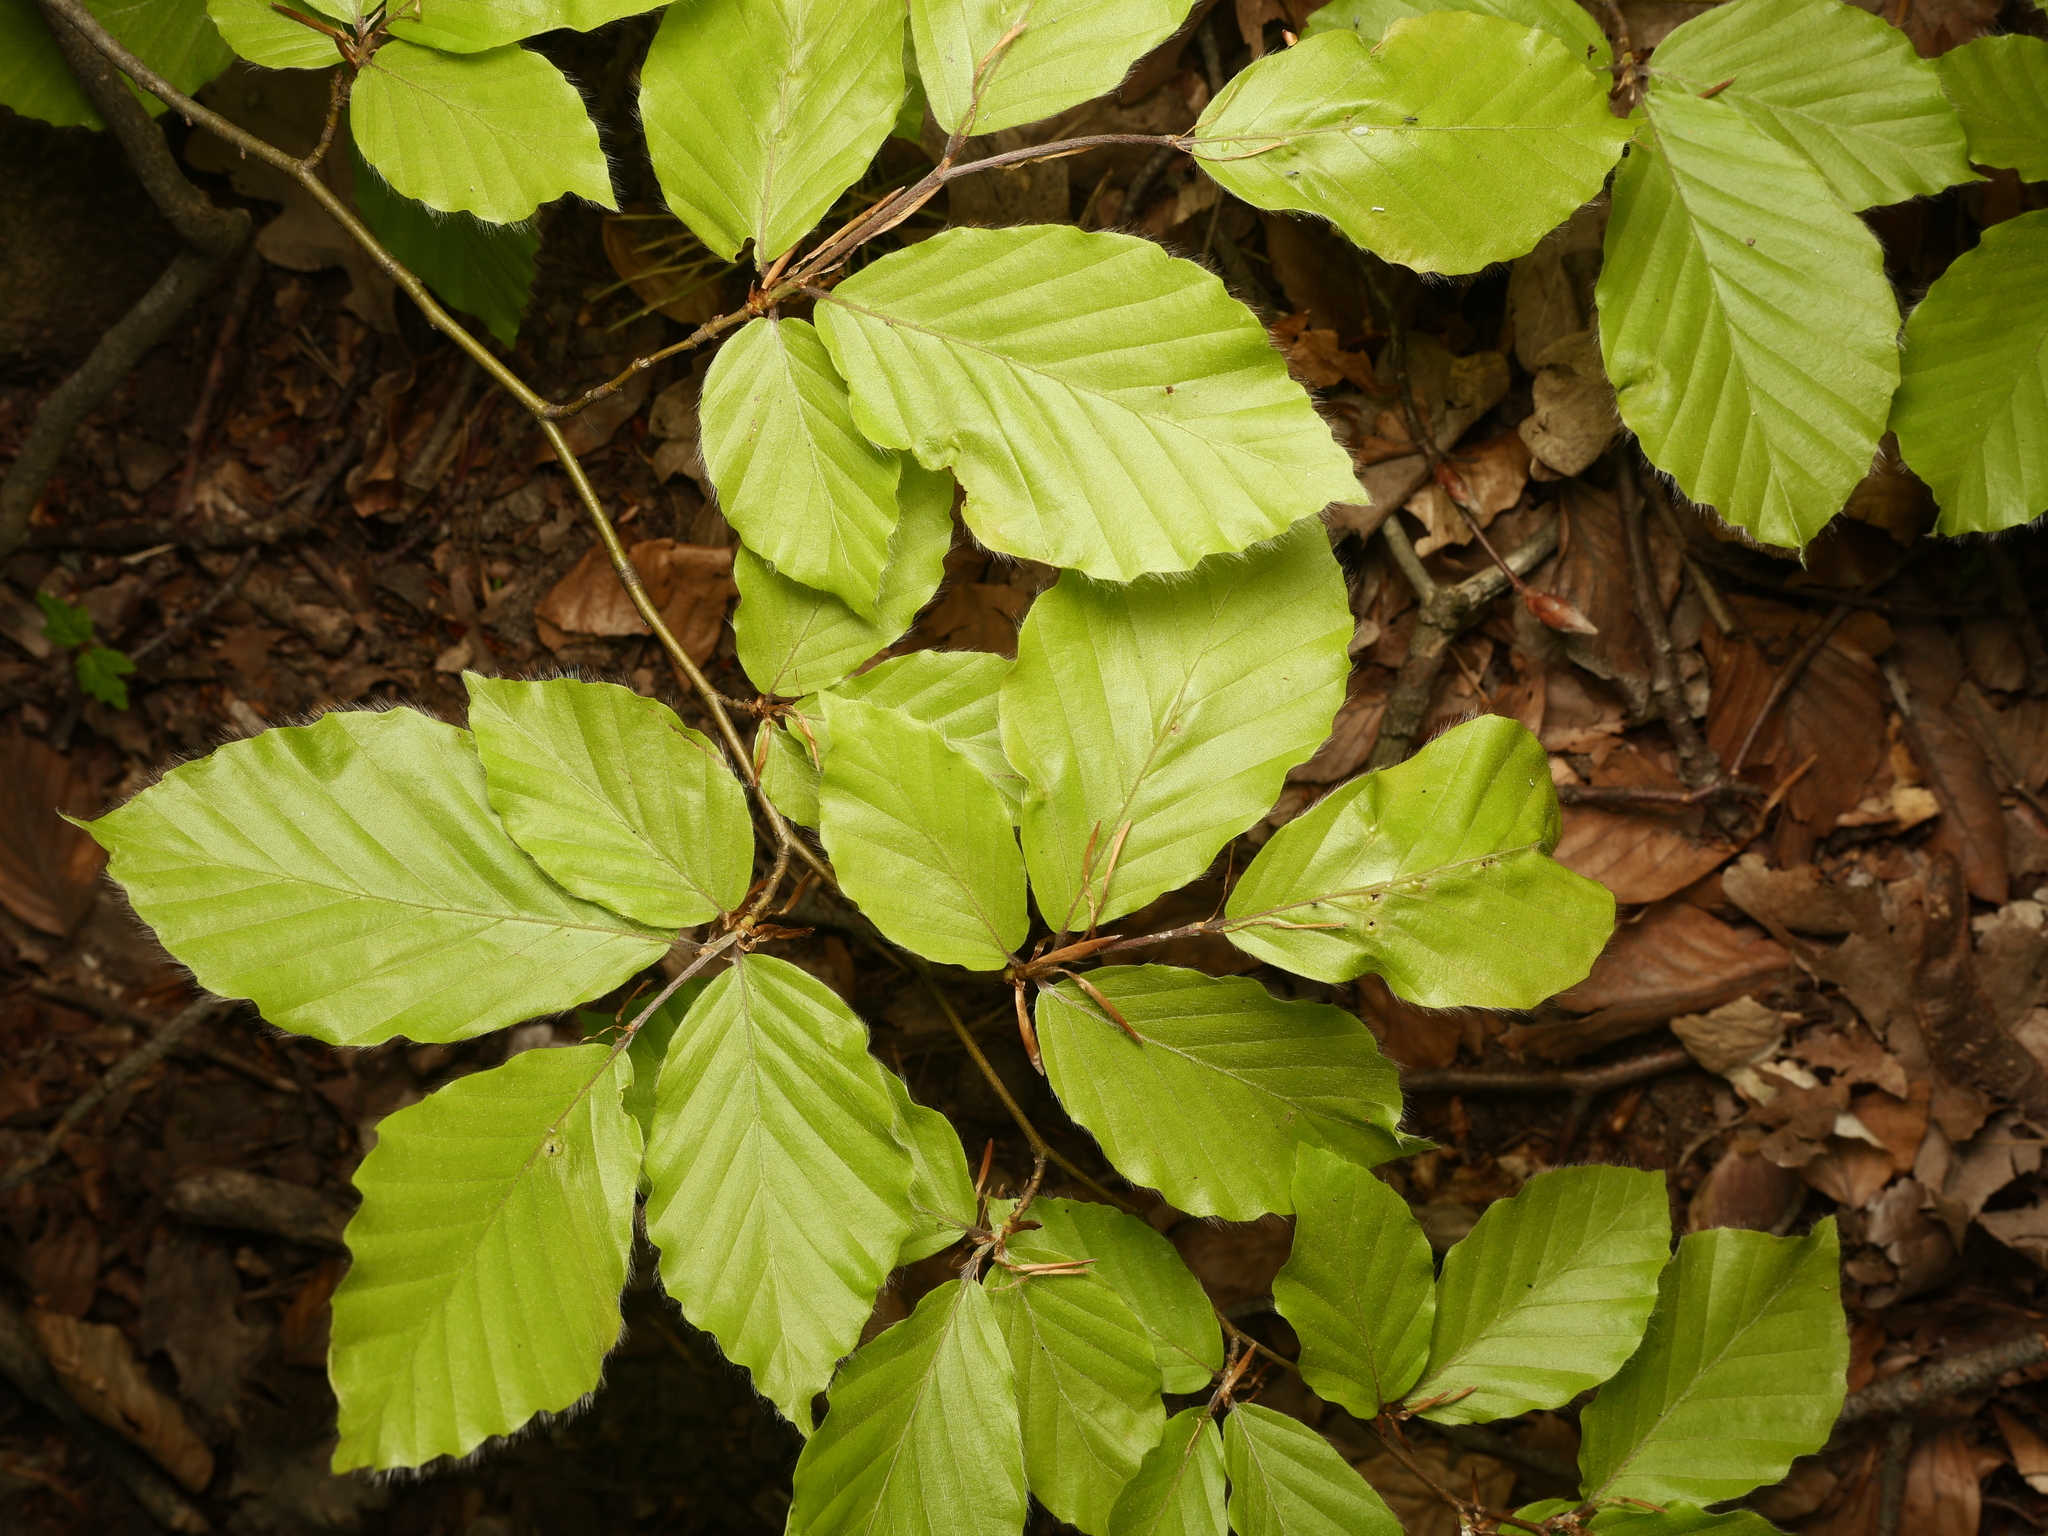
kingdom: Plantae
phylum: Tracheophyta
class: Magnoliopsida
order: Fagales
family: Fagaceae
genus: Fagus
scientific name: Fagus sylvatica
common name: Beech
